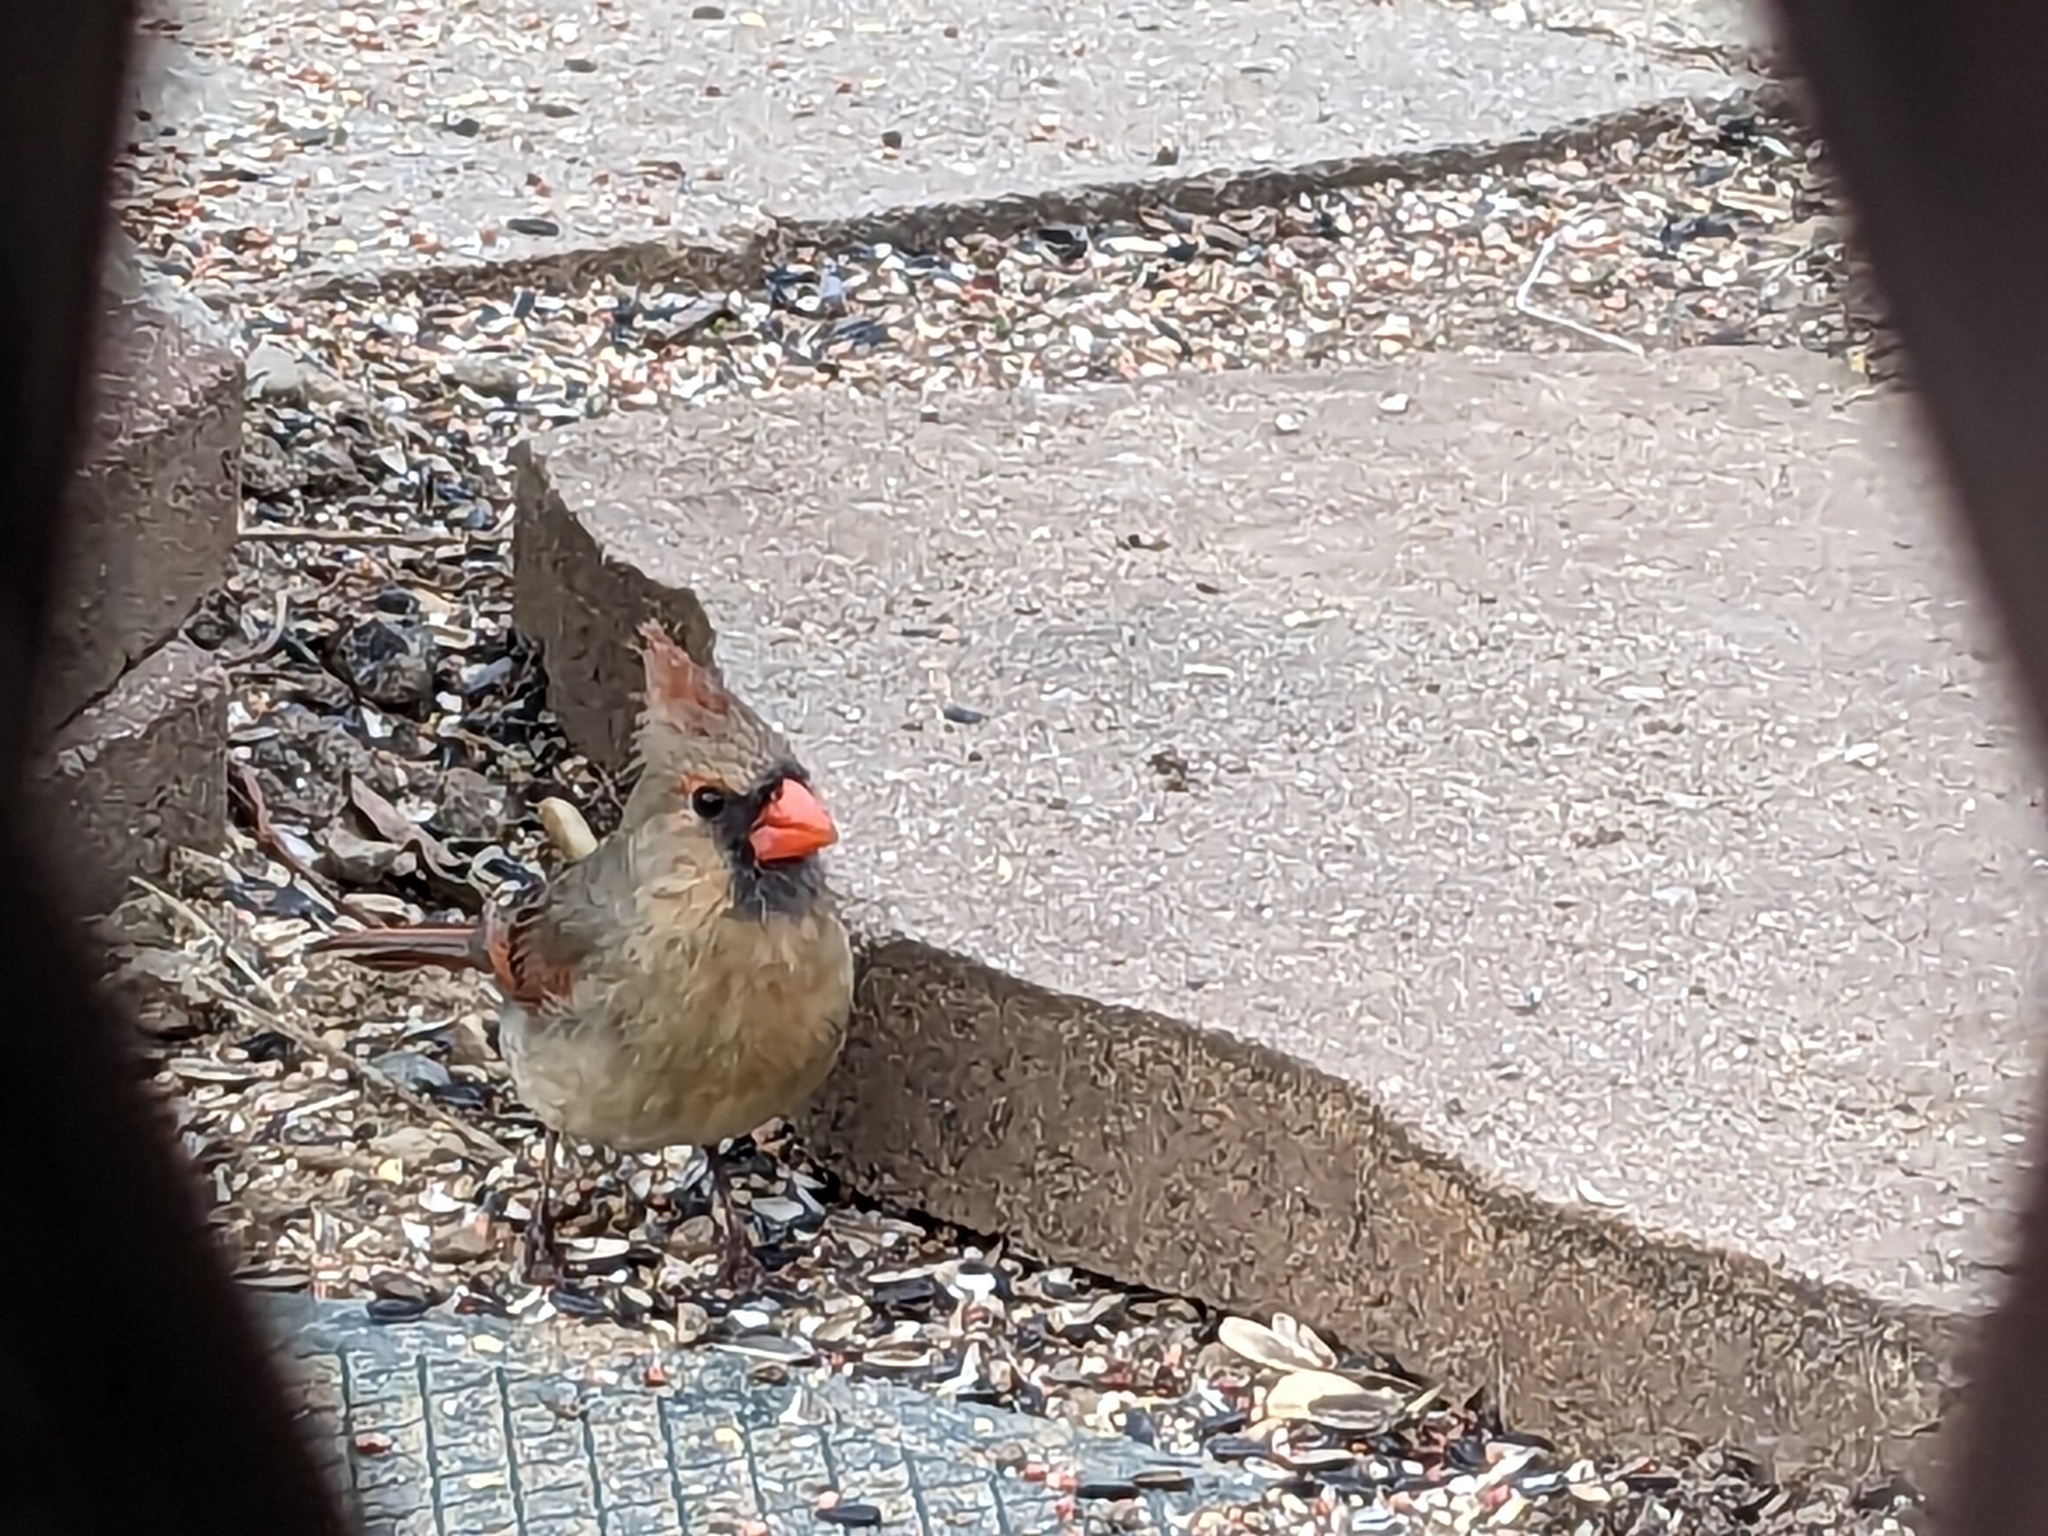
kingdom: Animalia
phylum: Chordata
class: Aves
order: Passeriformes
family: Cardinalidae
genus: Cardinalis
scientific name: Cardinalis cardinalis
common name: Northern cardinal
